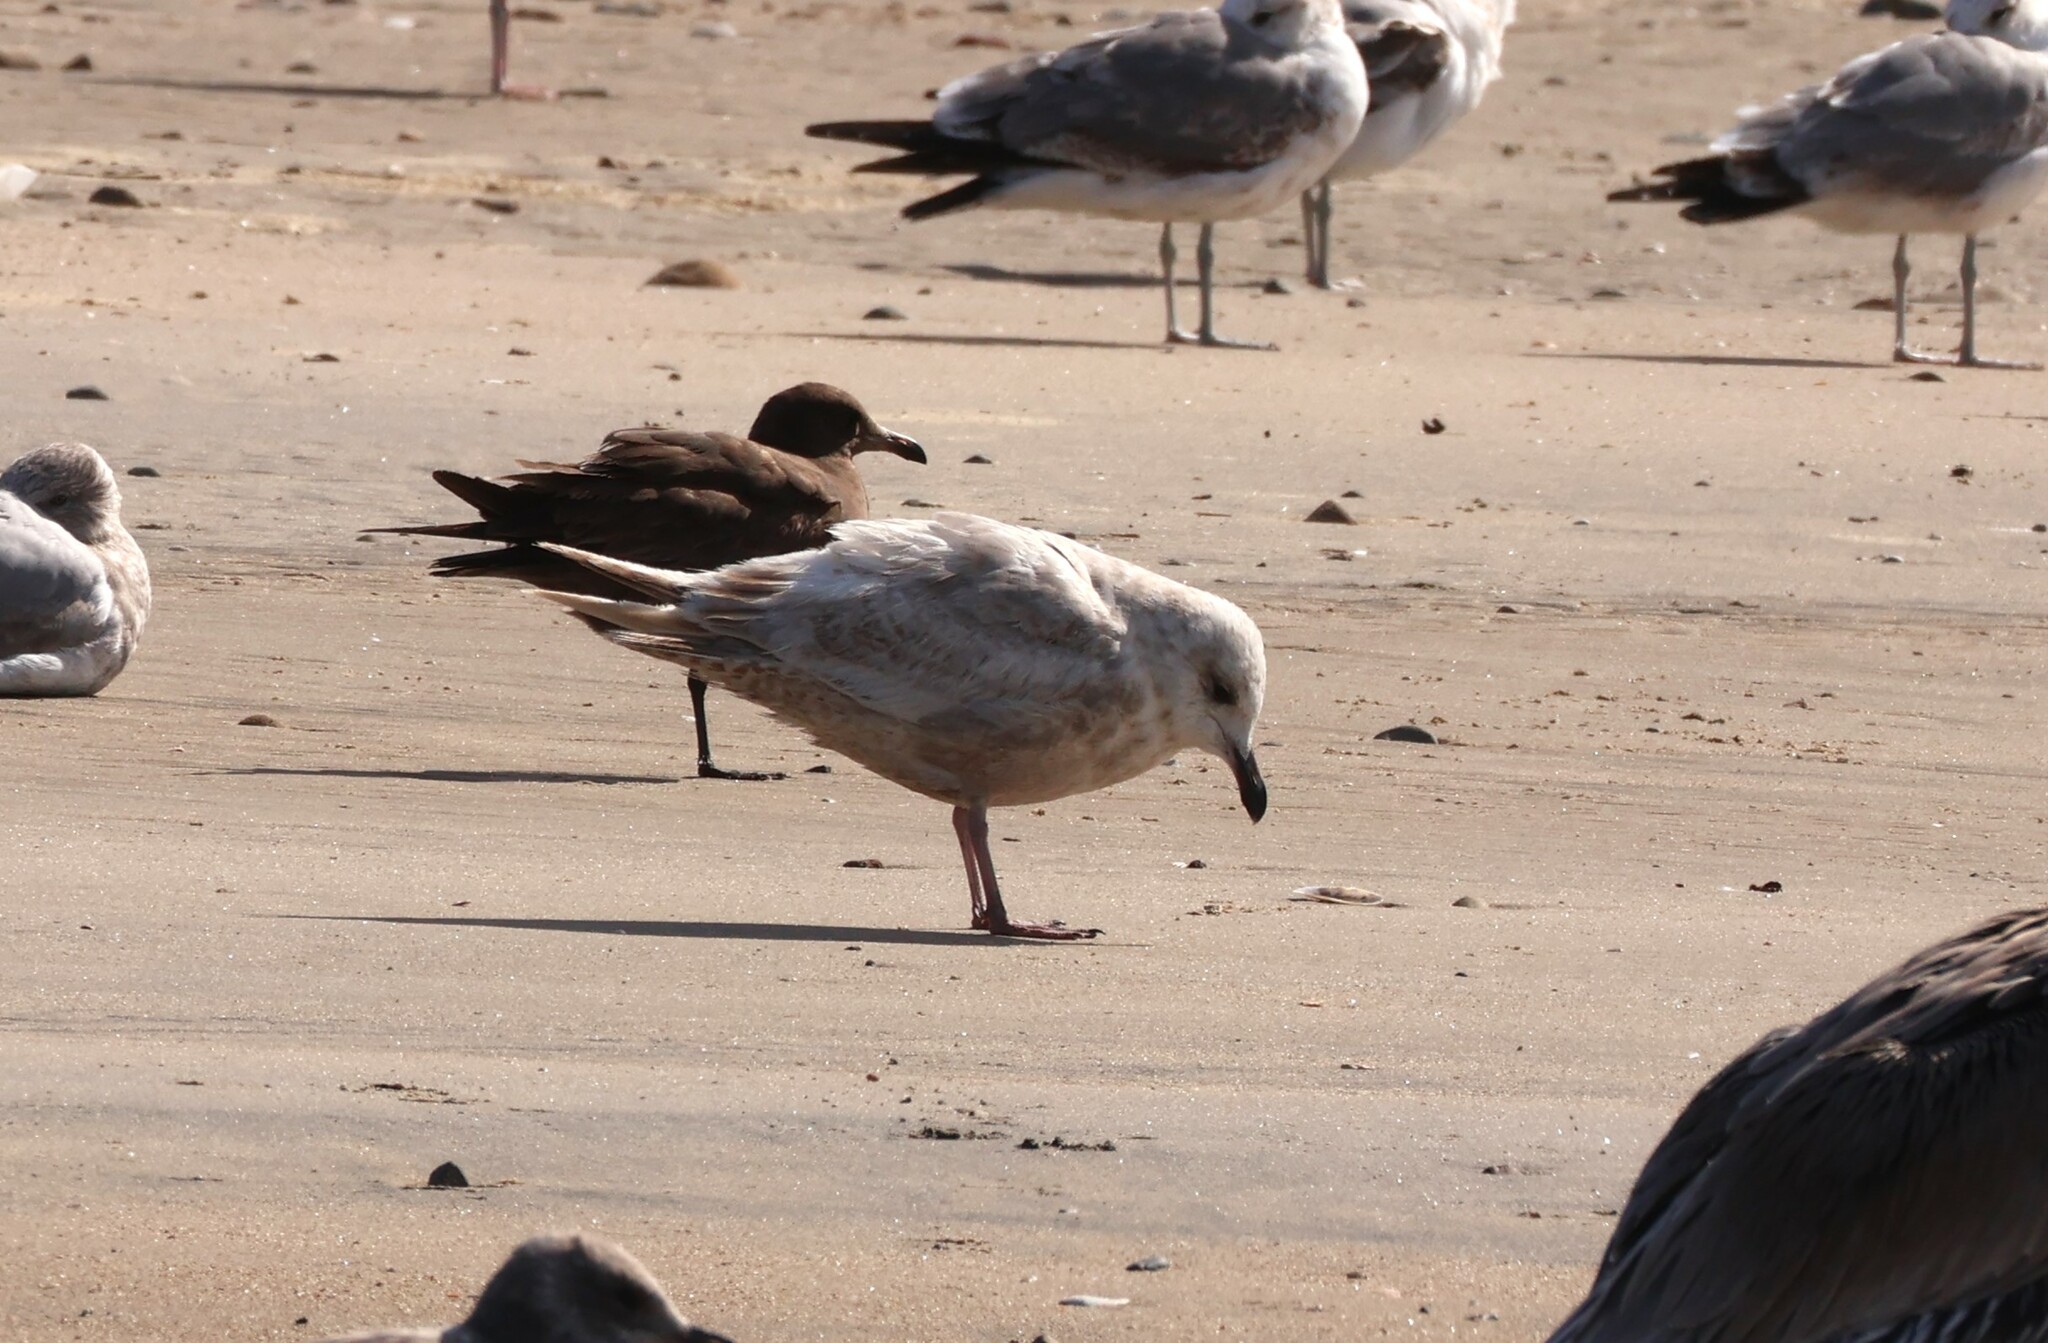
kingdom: Animalia
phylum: Chordata
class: Aves
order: Charadriiformes
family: Laridae
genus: Larus
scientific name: Larus glaucescens
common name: Glaucous-winged gull
